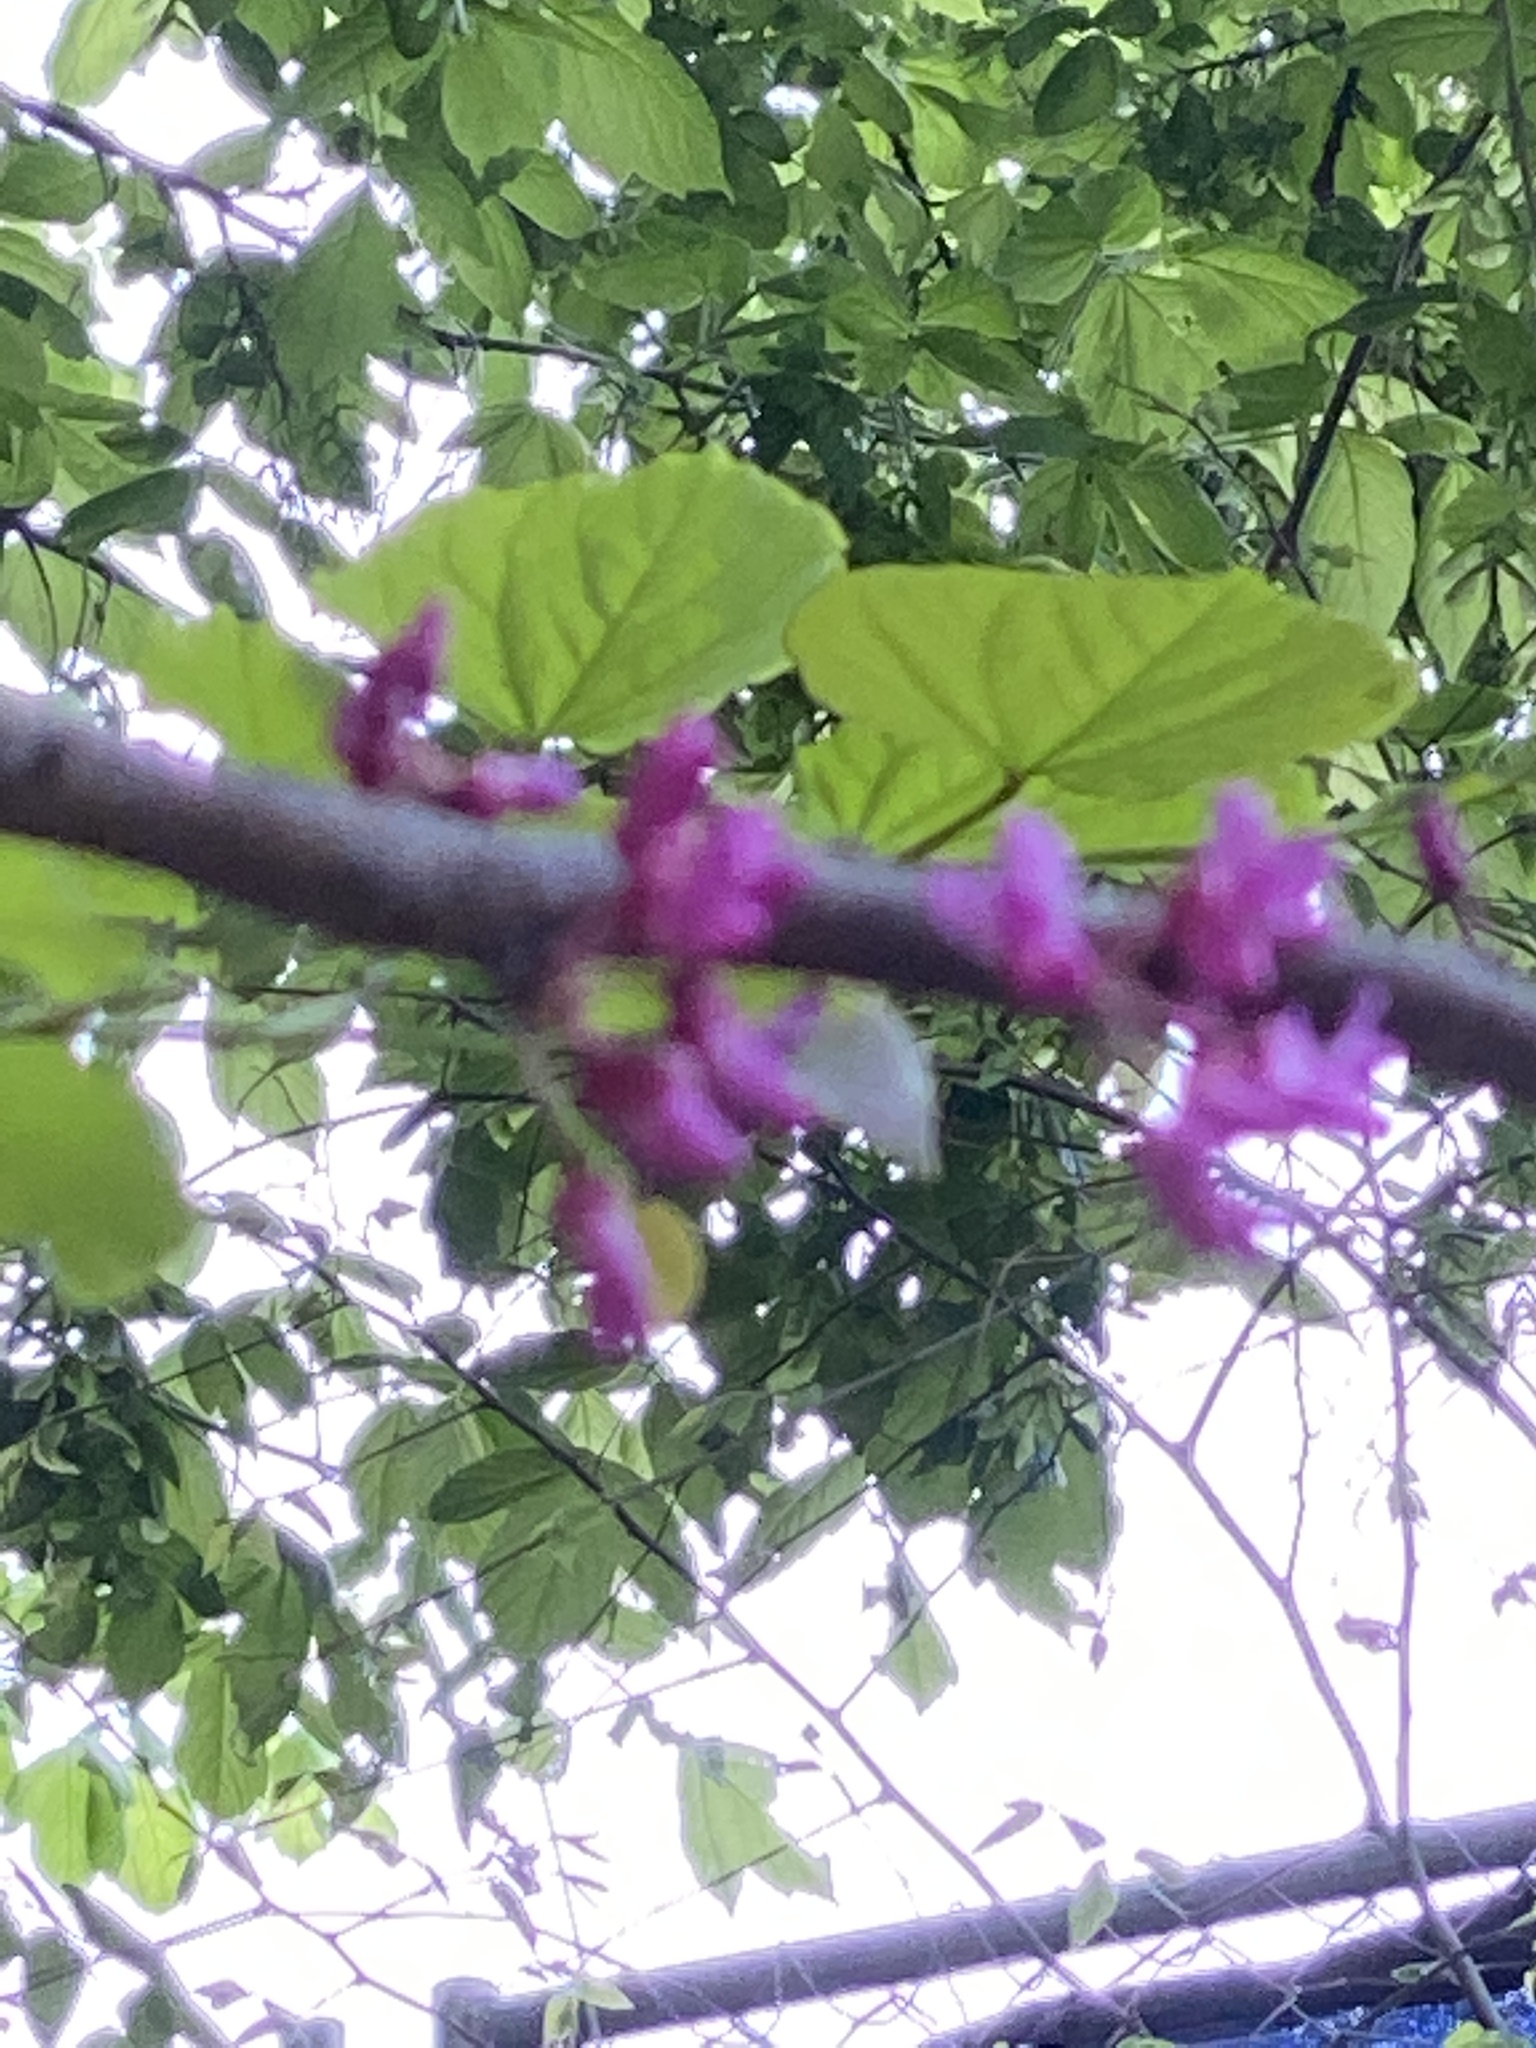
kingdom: Plantae
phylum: Tracheophyta
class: Magnoliopsida
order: Fabales
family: Fabaceae
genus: Cercis
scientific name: Cercis canadensis
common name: Eastern redbud
